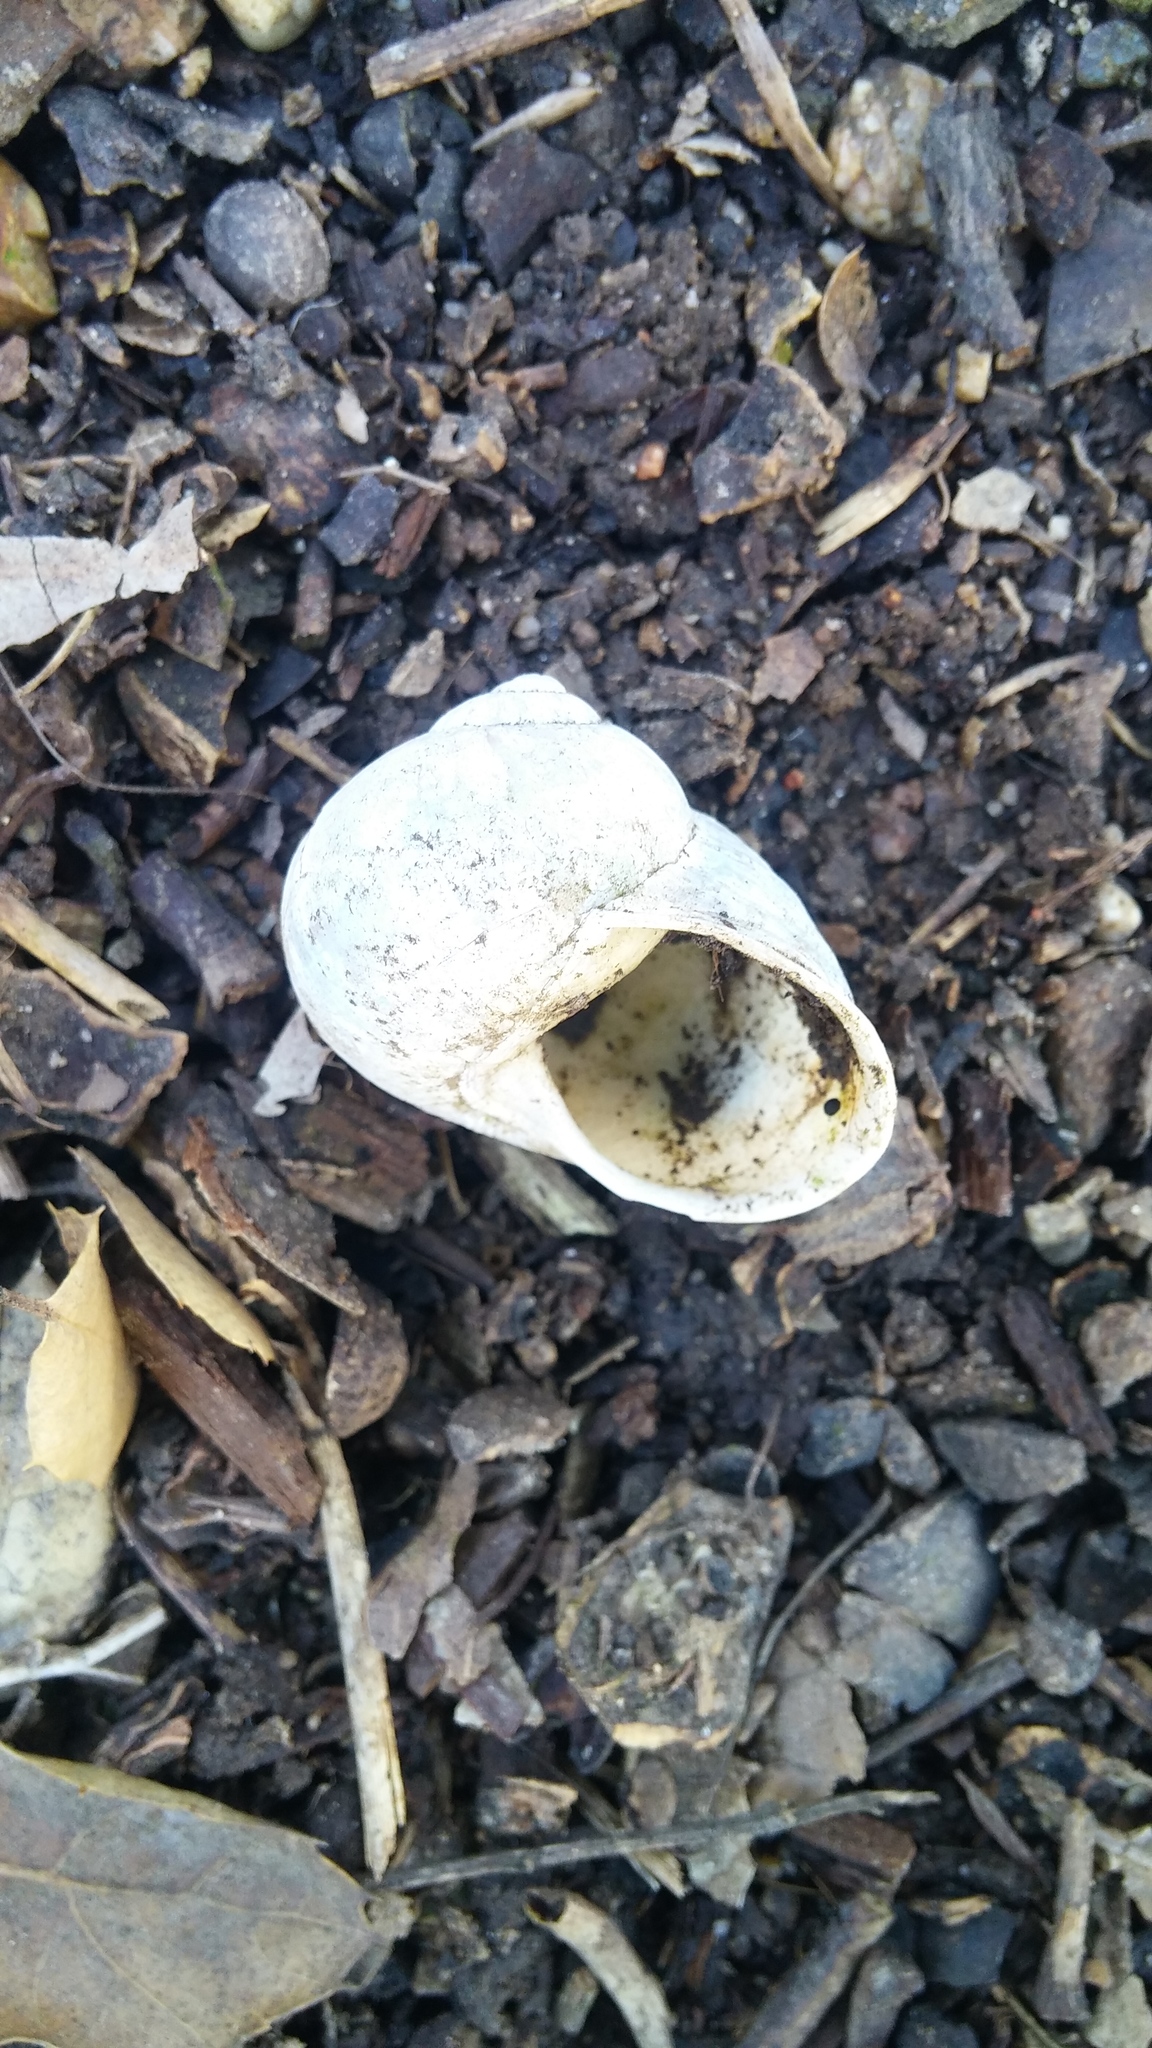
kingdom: Animalia
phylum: Mollusca
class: Gastropoda
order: Stylommatophora
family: Helicidae
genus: Cornu
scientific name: Cornu aspersum
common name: Brown garden snail
